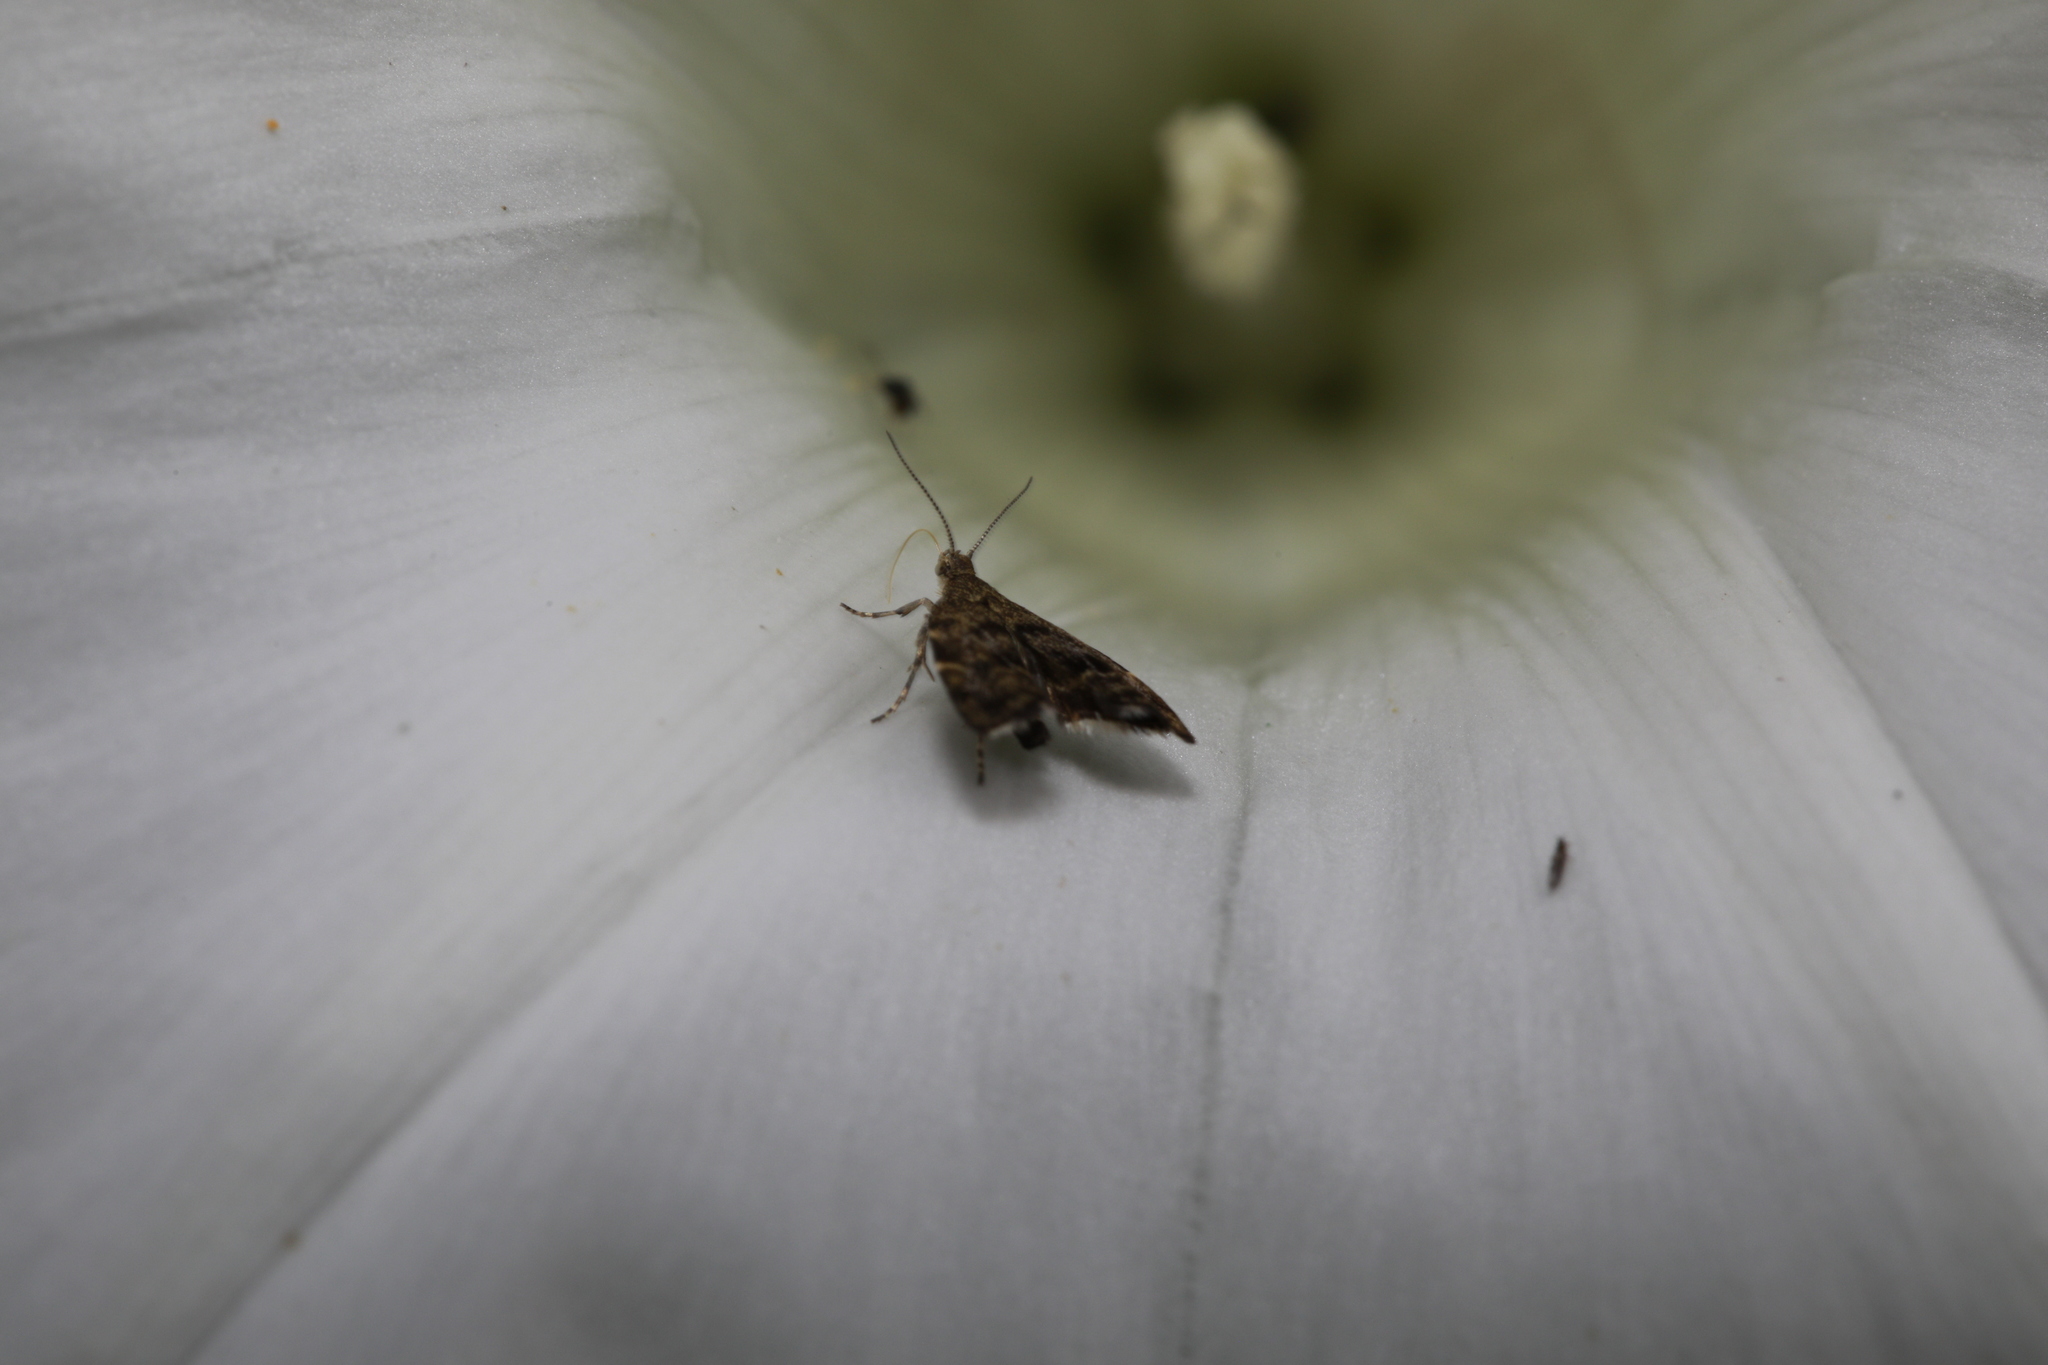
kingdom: Animalia
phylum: Arthropoda
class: Insecta
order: Lepidoptera
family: Choreutidae
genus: Anthophila
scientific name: Anthophila fabriciana
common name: Nettle-tap
